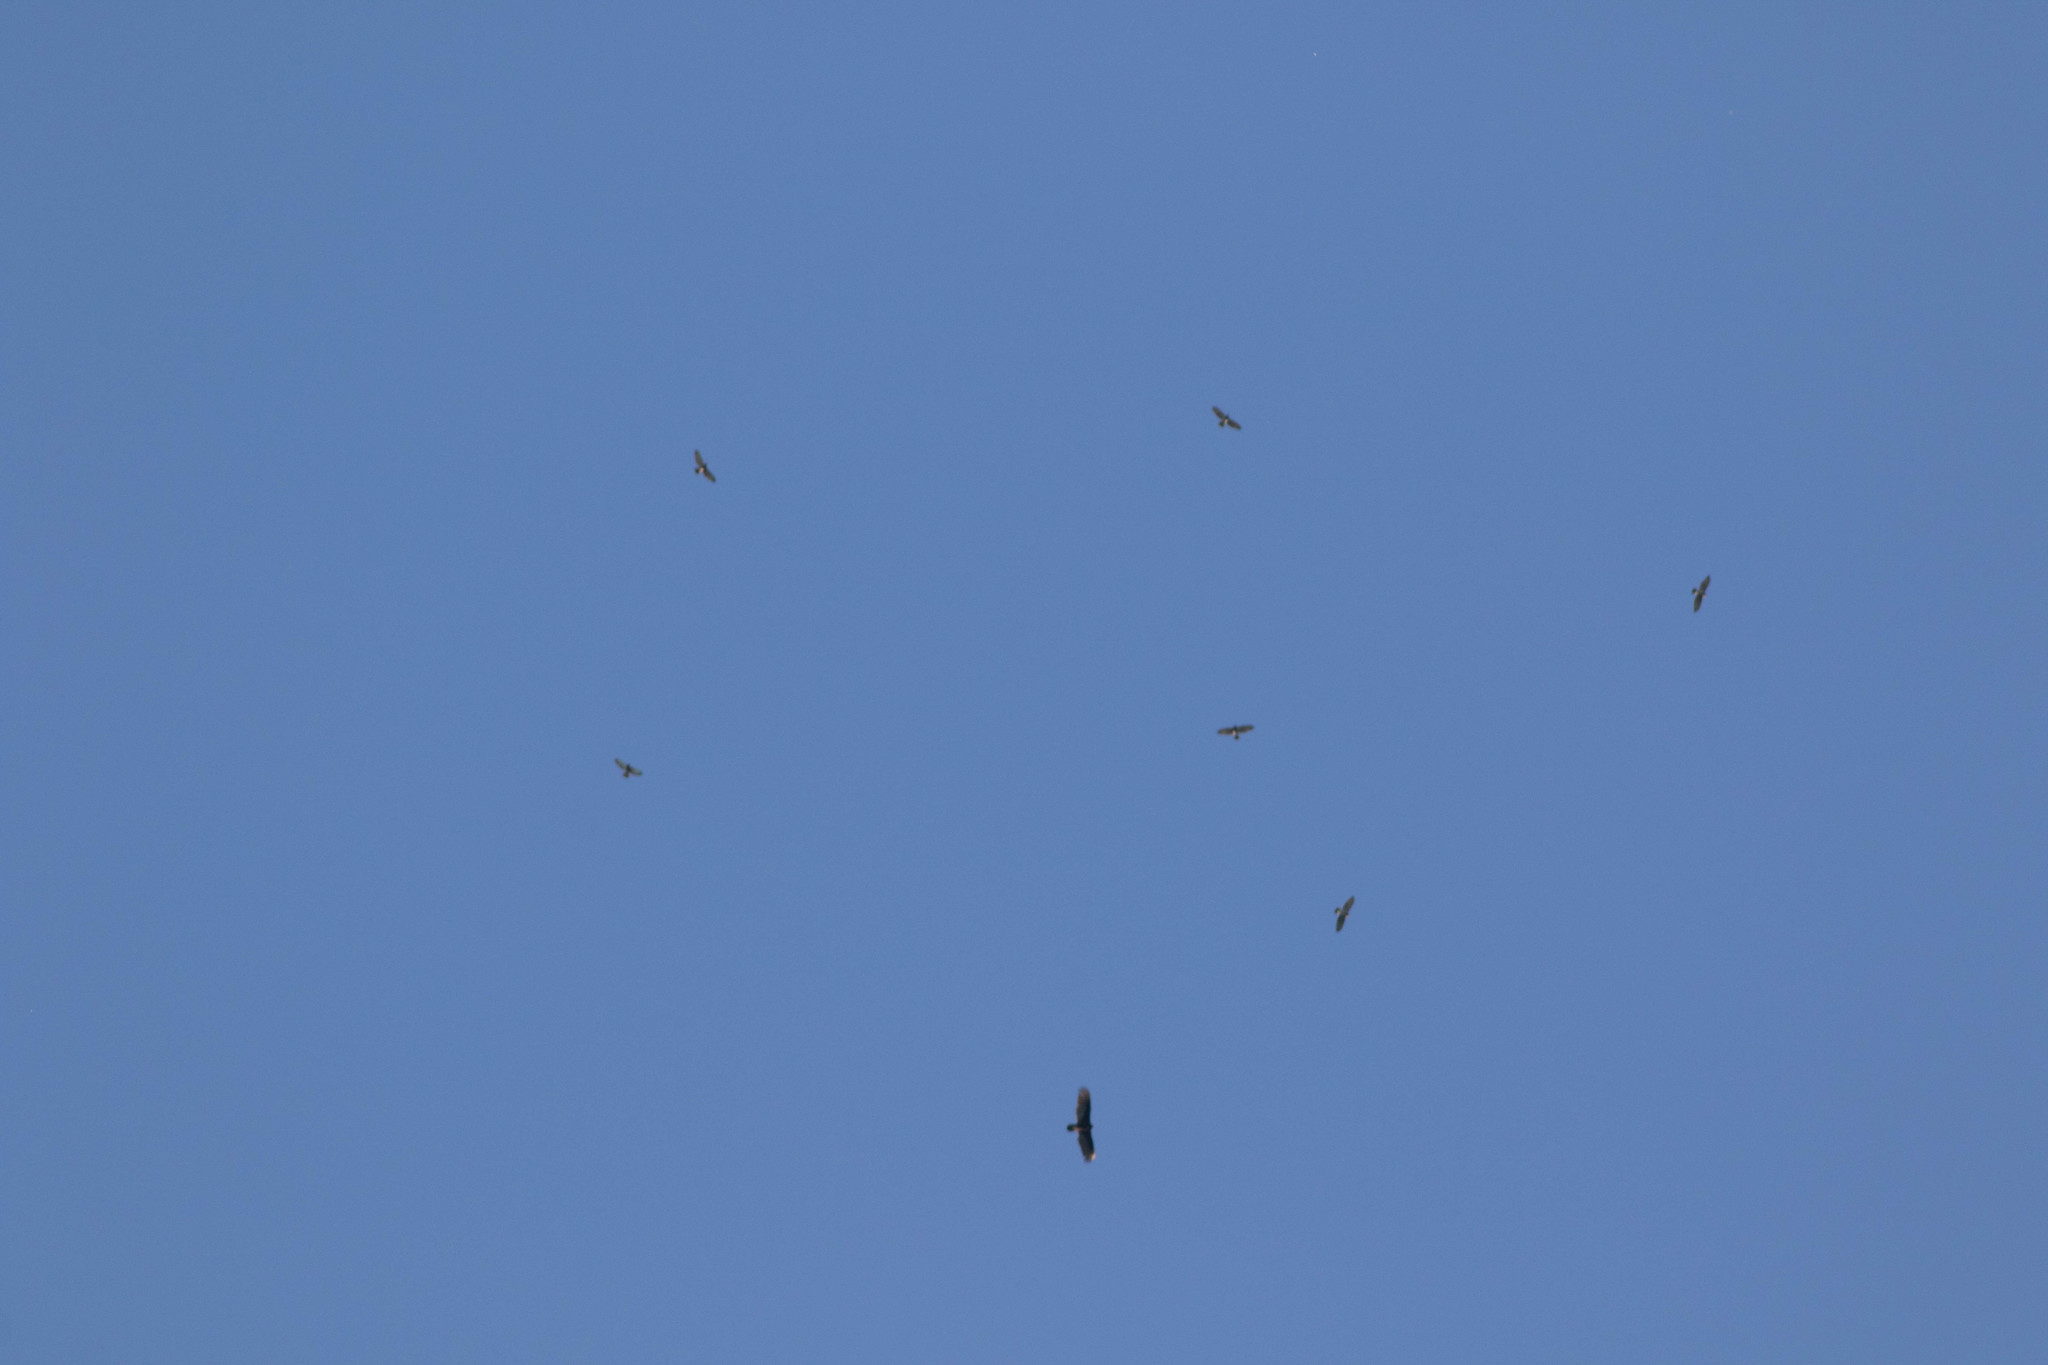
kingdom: Animalia
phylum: Chordata
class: Aves
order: Accipitriformes
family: Accipitridae
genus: Buteo
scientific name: Buteo platypterus
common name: Broad-winged hawk
